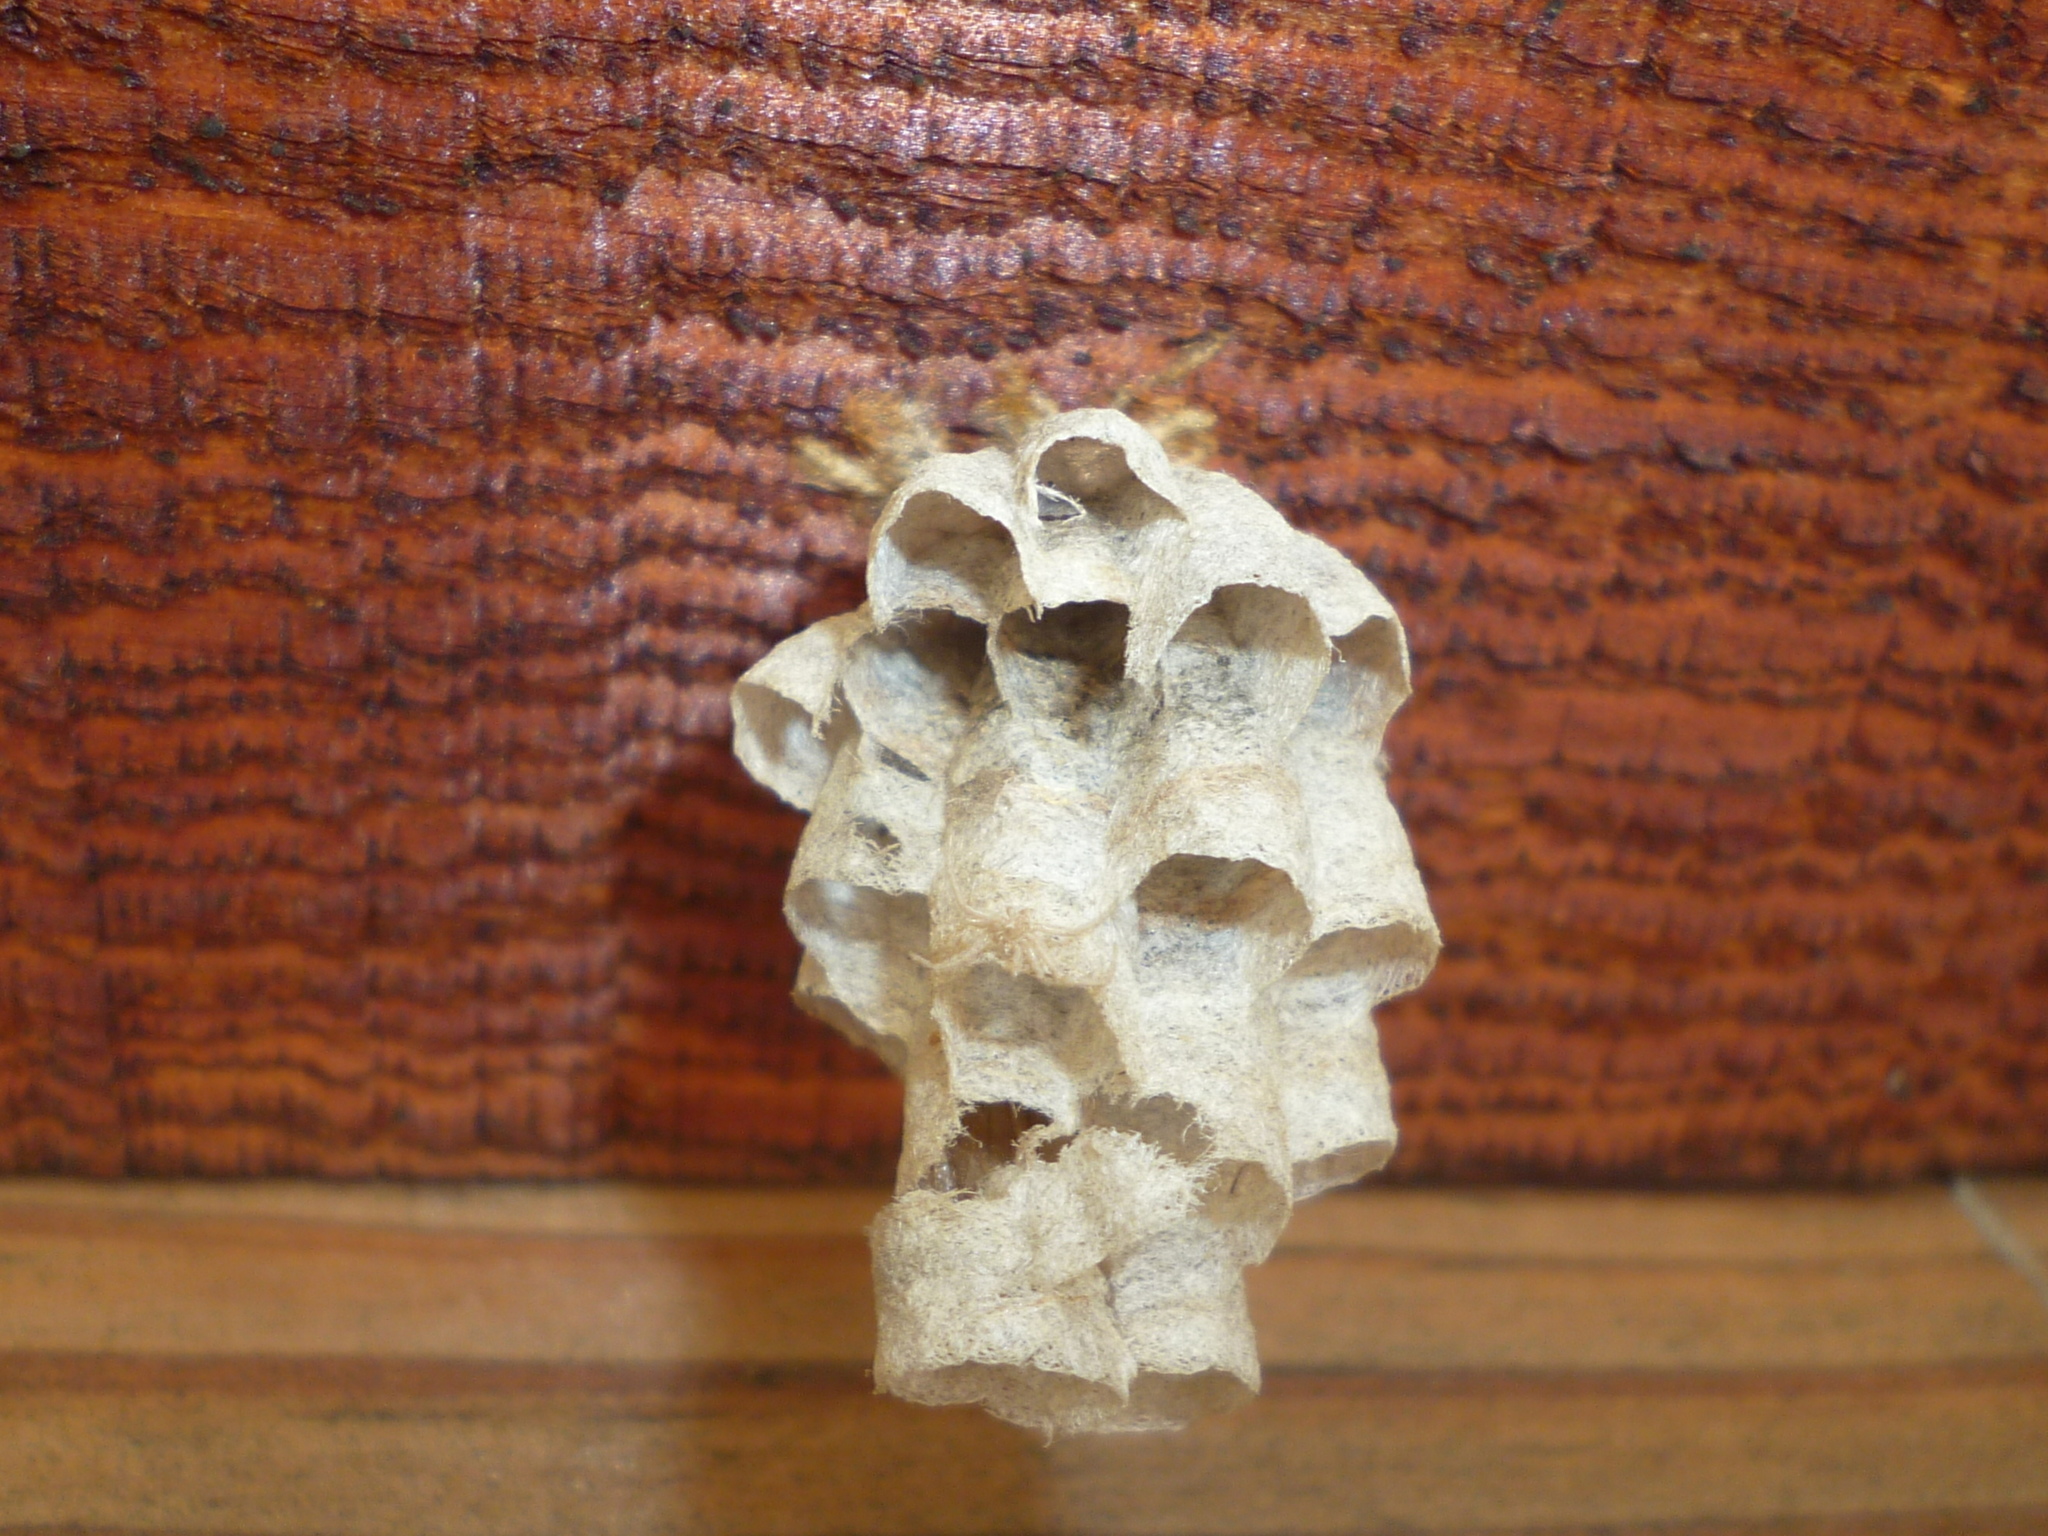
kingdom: Animalia
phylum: Arthropoda
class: Insecta
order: Hymenoptera
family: Eumenidae
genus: Polistes
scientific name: Polistes
